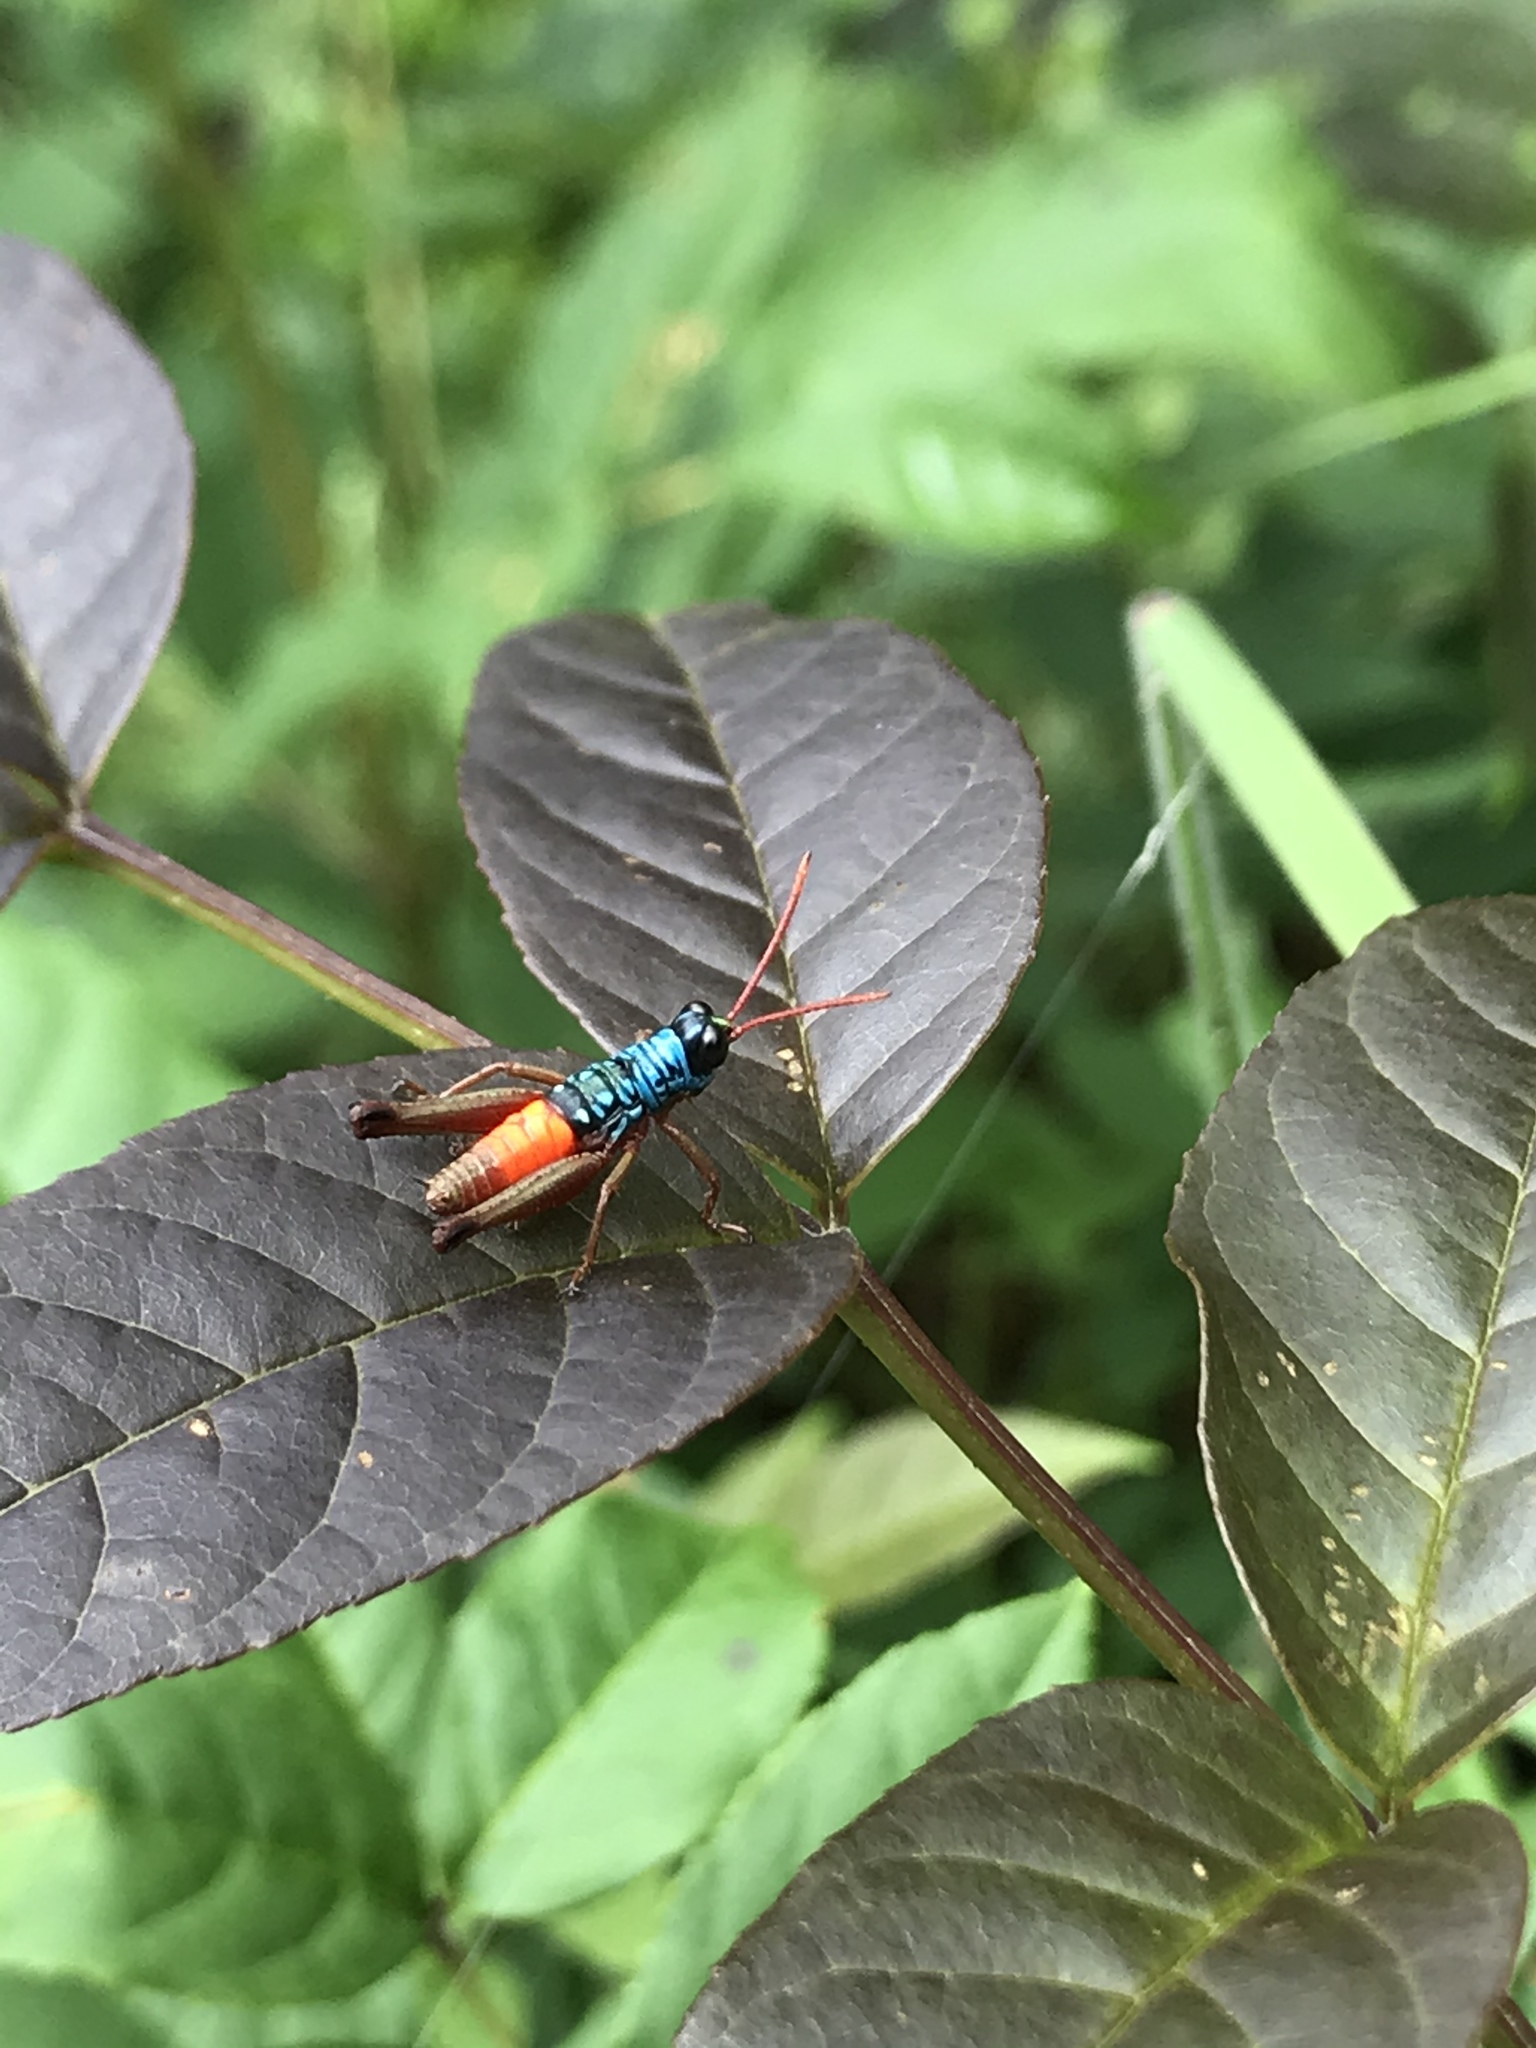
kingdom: Animalia
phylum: Arthropoda
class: Insecta
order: Orthoptera
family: Acrididae
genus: Opaonella
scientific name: Opaonella tenuis
